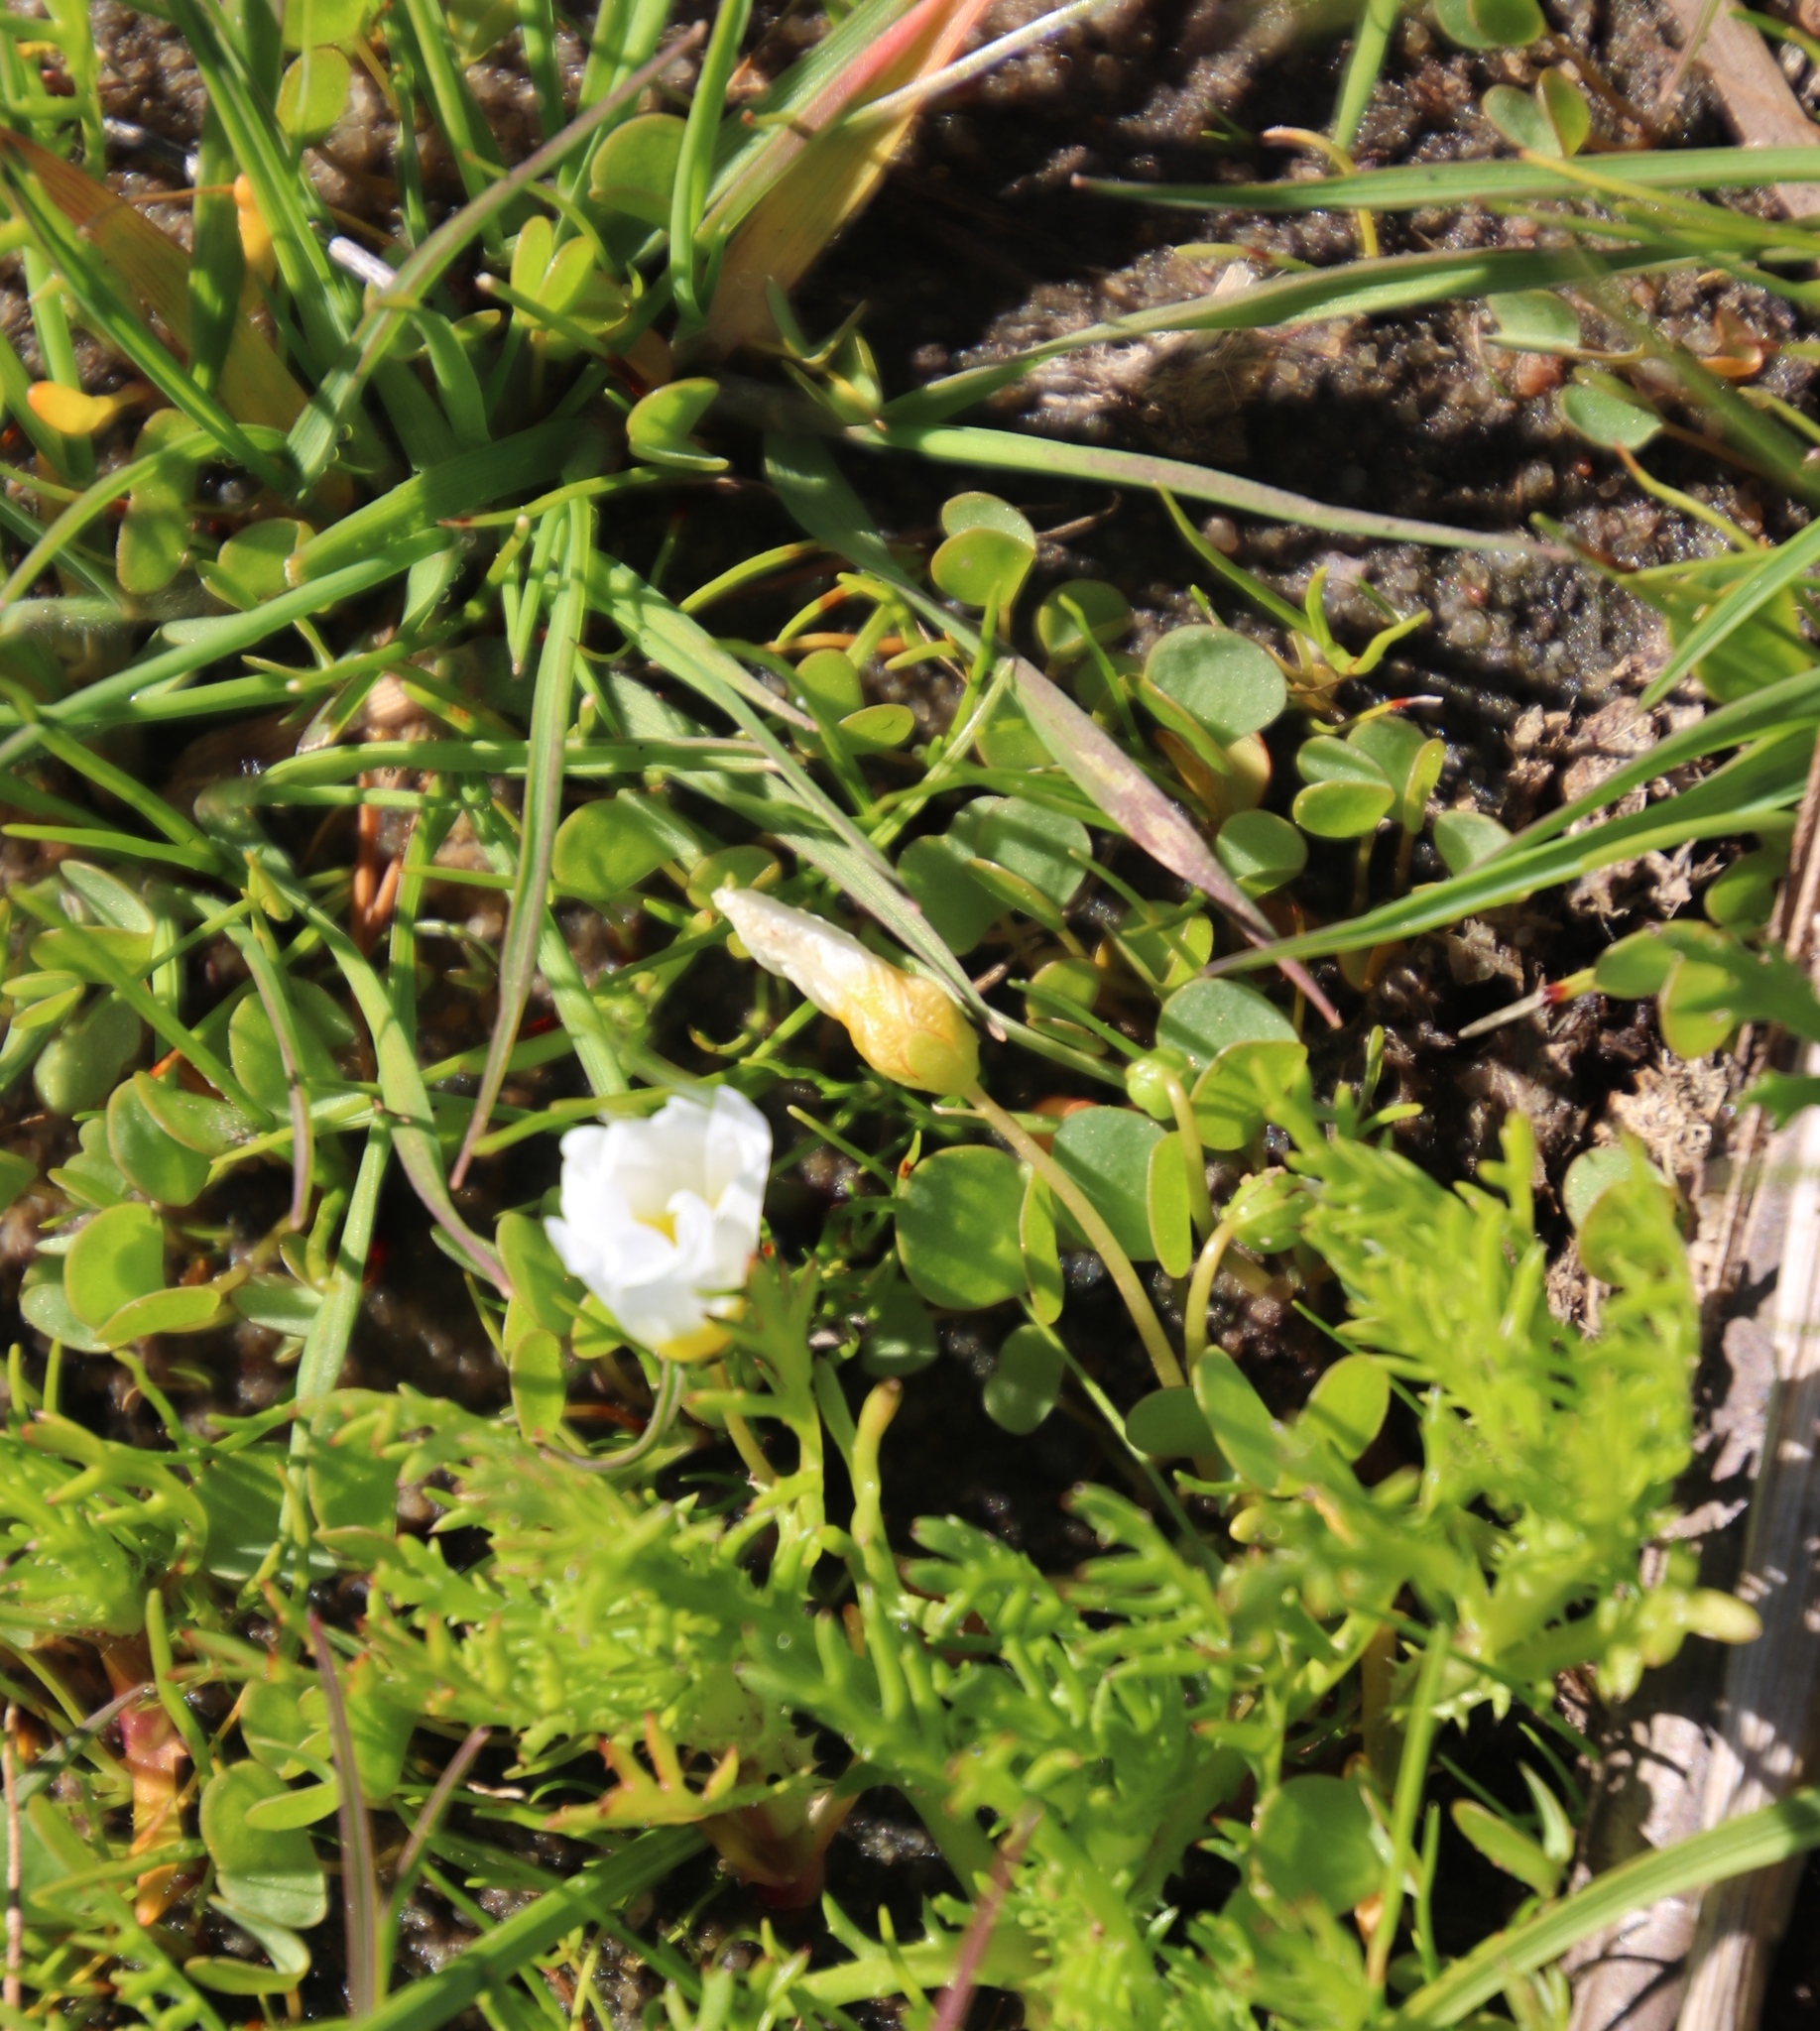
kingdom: Plantae
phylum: Tracheophyta
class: Magnoliopsida
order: Oxalidales
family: Oxalidaceae
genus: Oxalis
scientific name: Oxalis dregei
